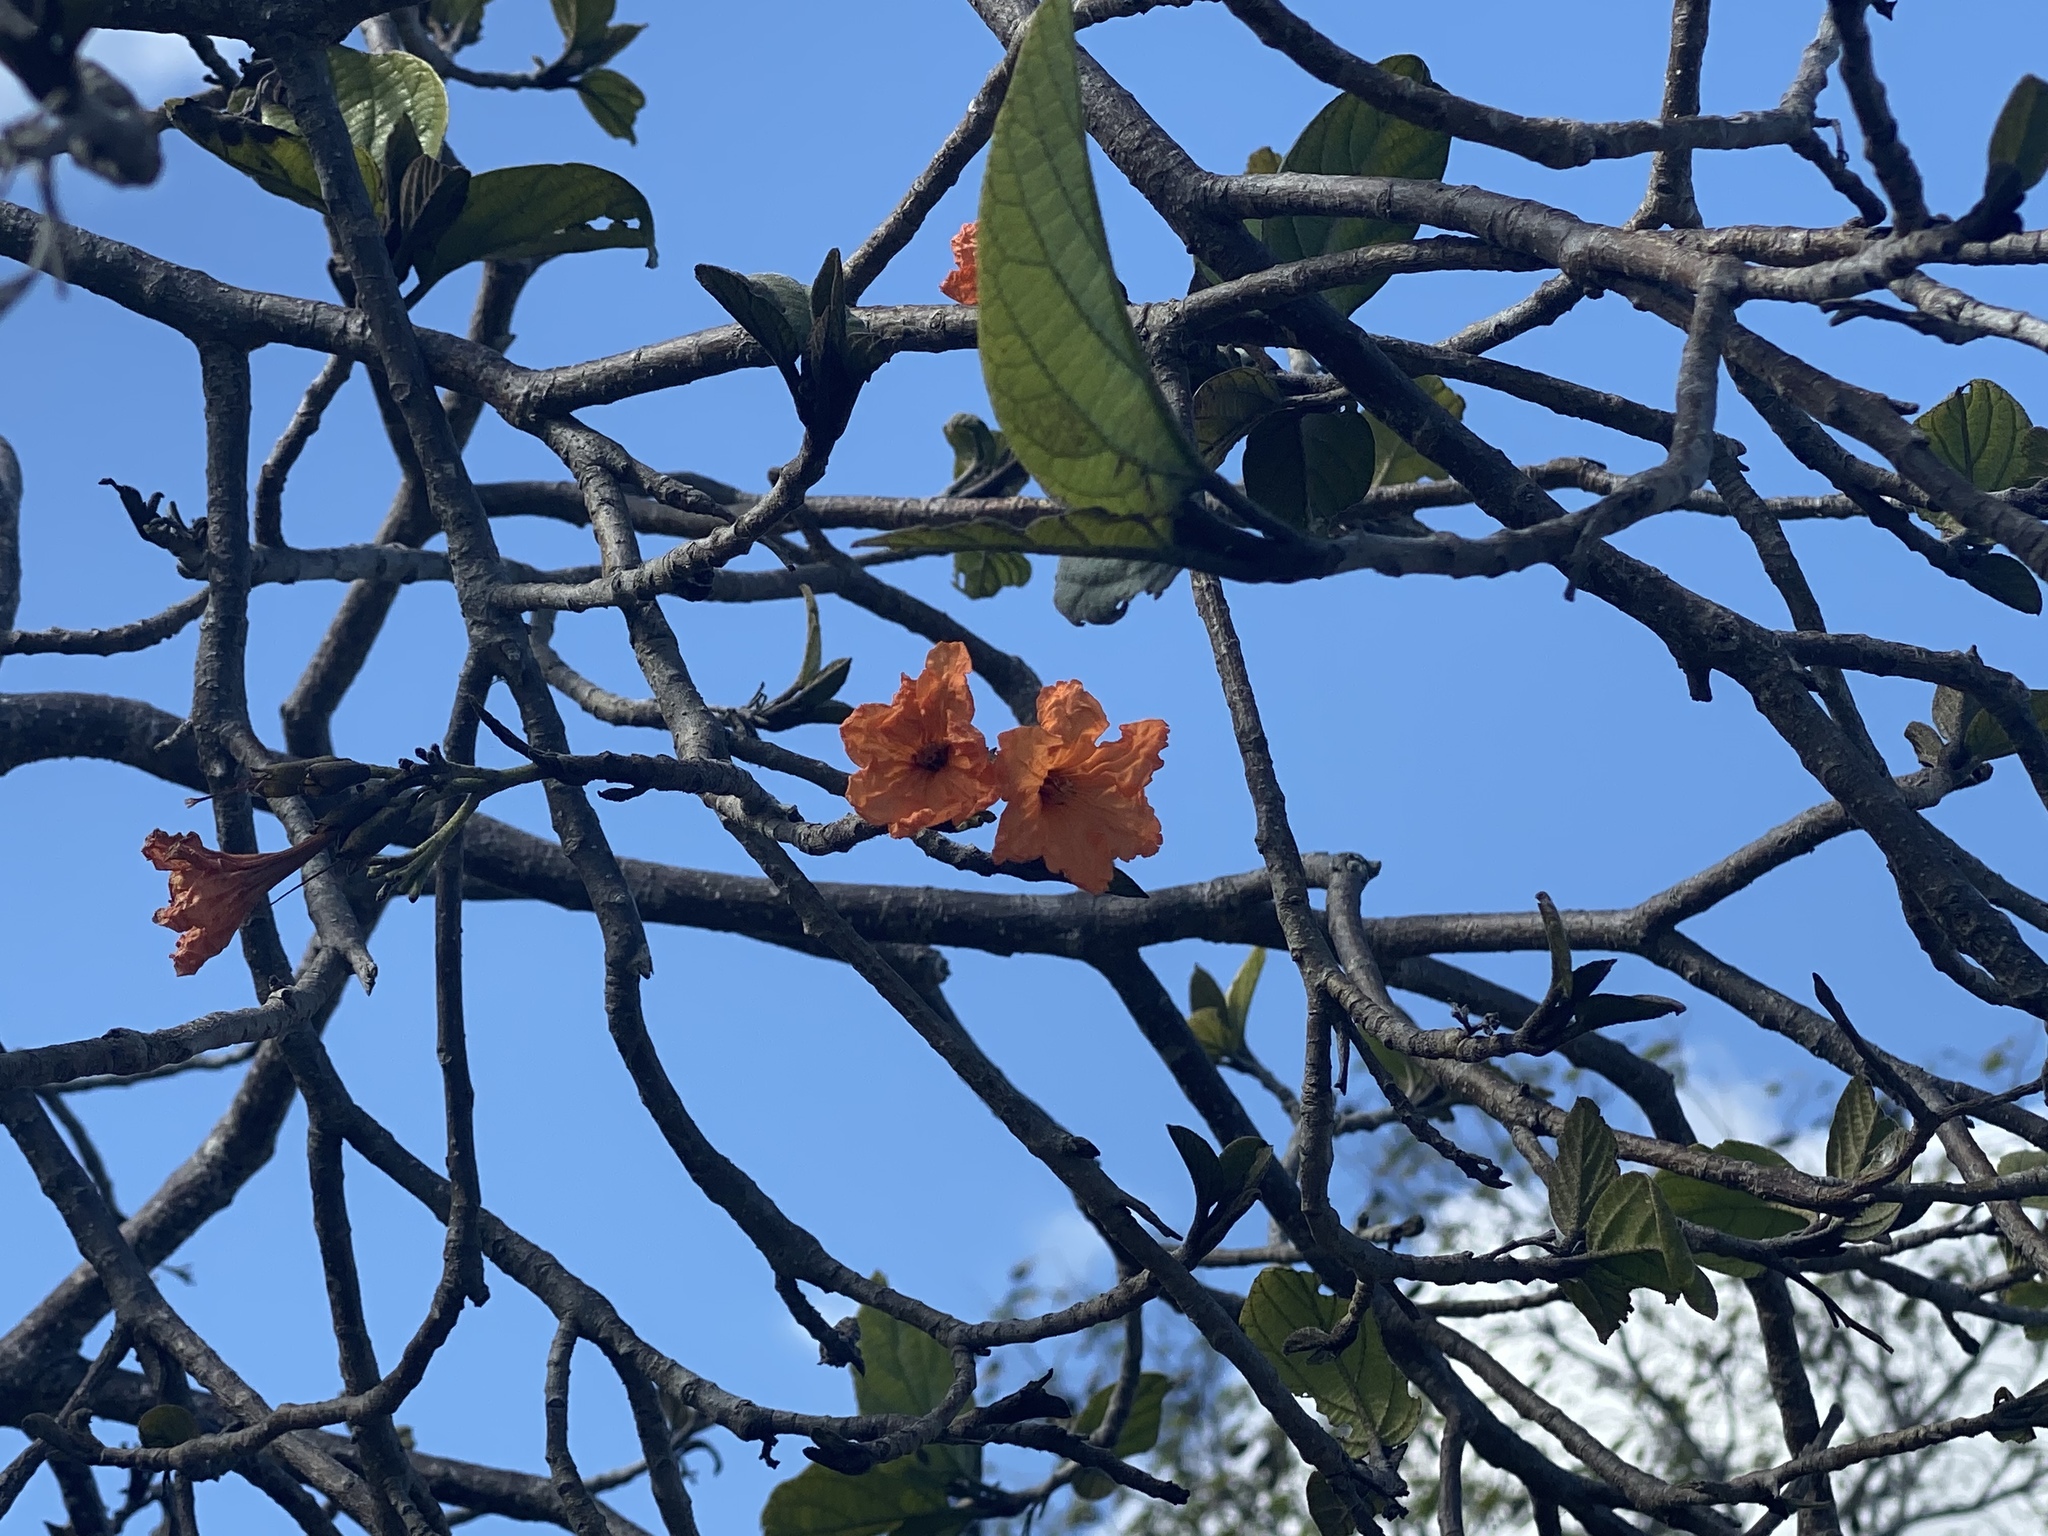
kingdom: Plantae
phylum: Tracheophyta
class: Magnoliopsida
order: Boraginales
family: Cordiaceae
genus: Cordia
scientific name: Cordia sebestena
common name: Largeleaf geigertree
